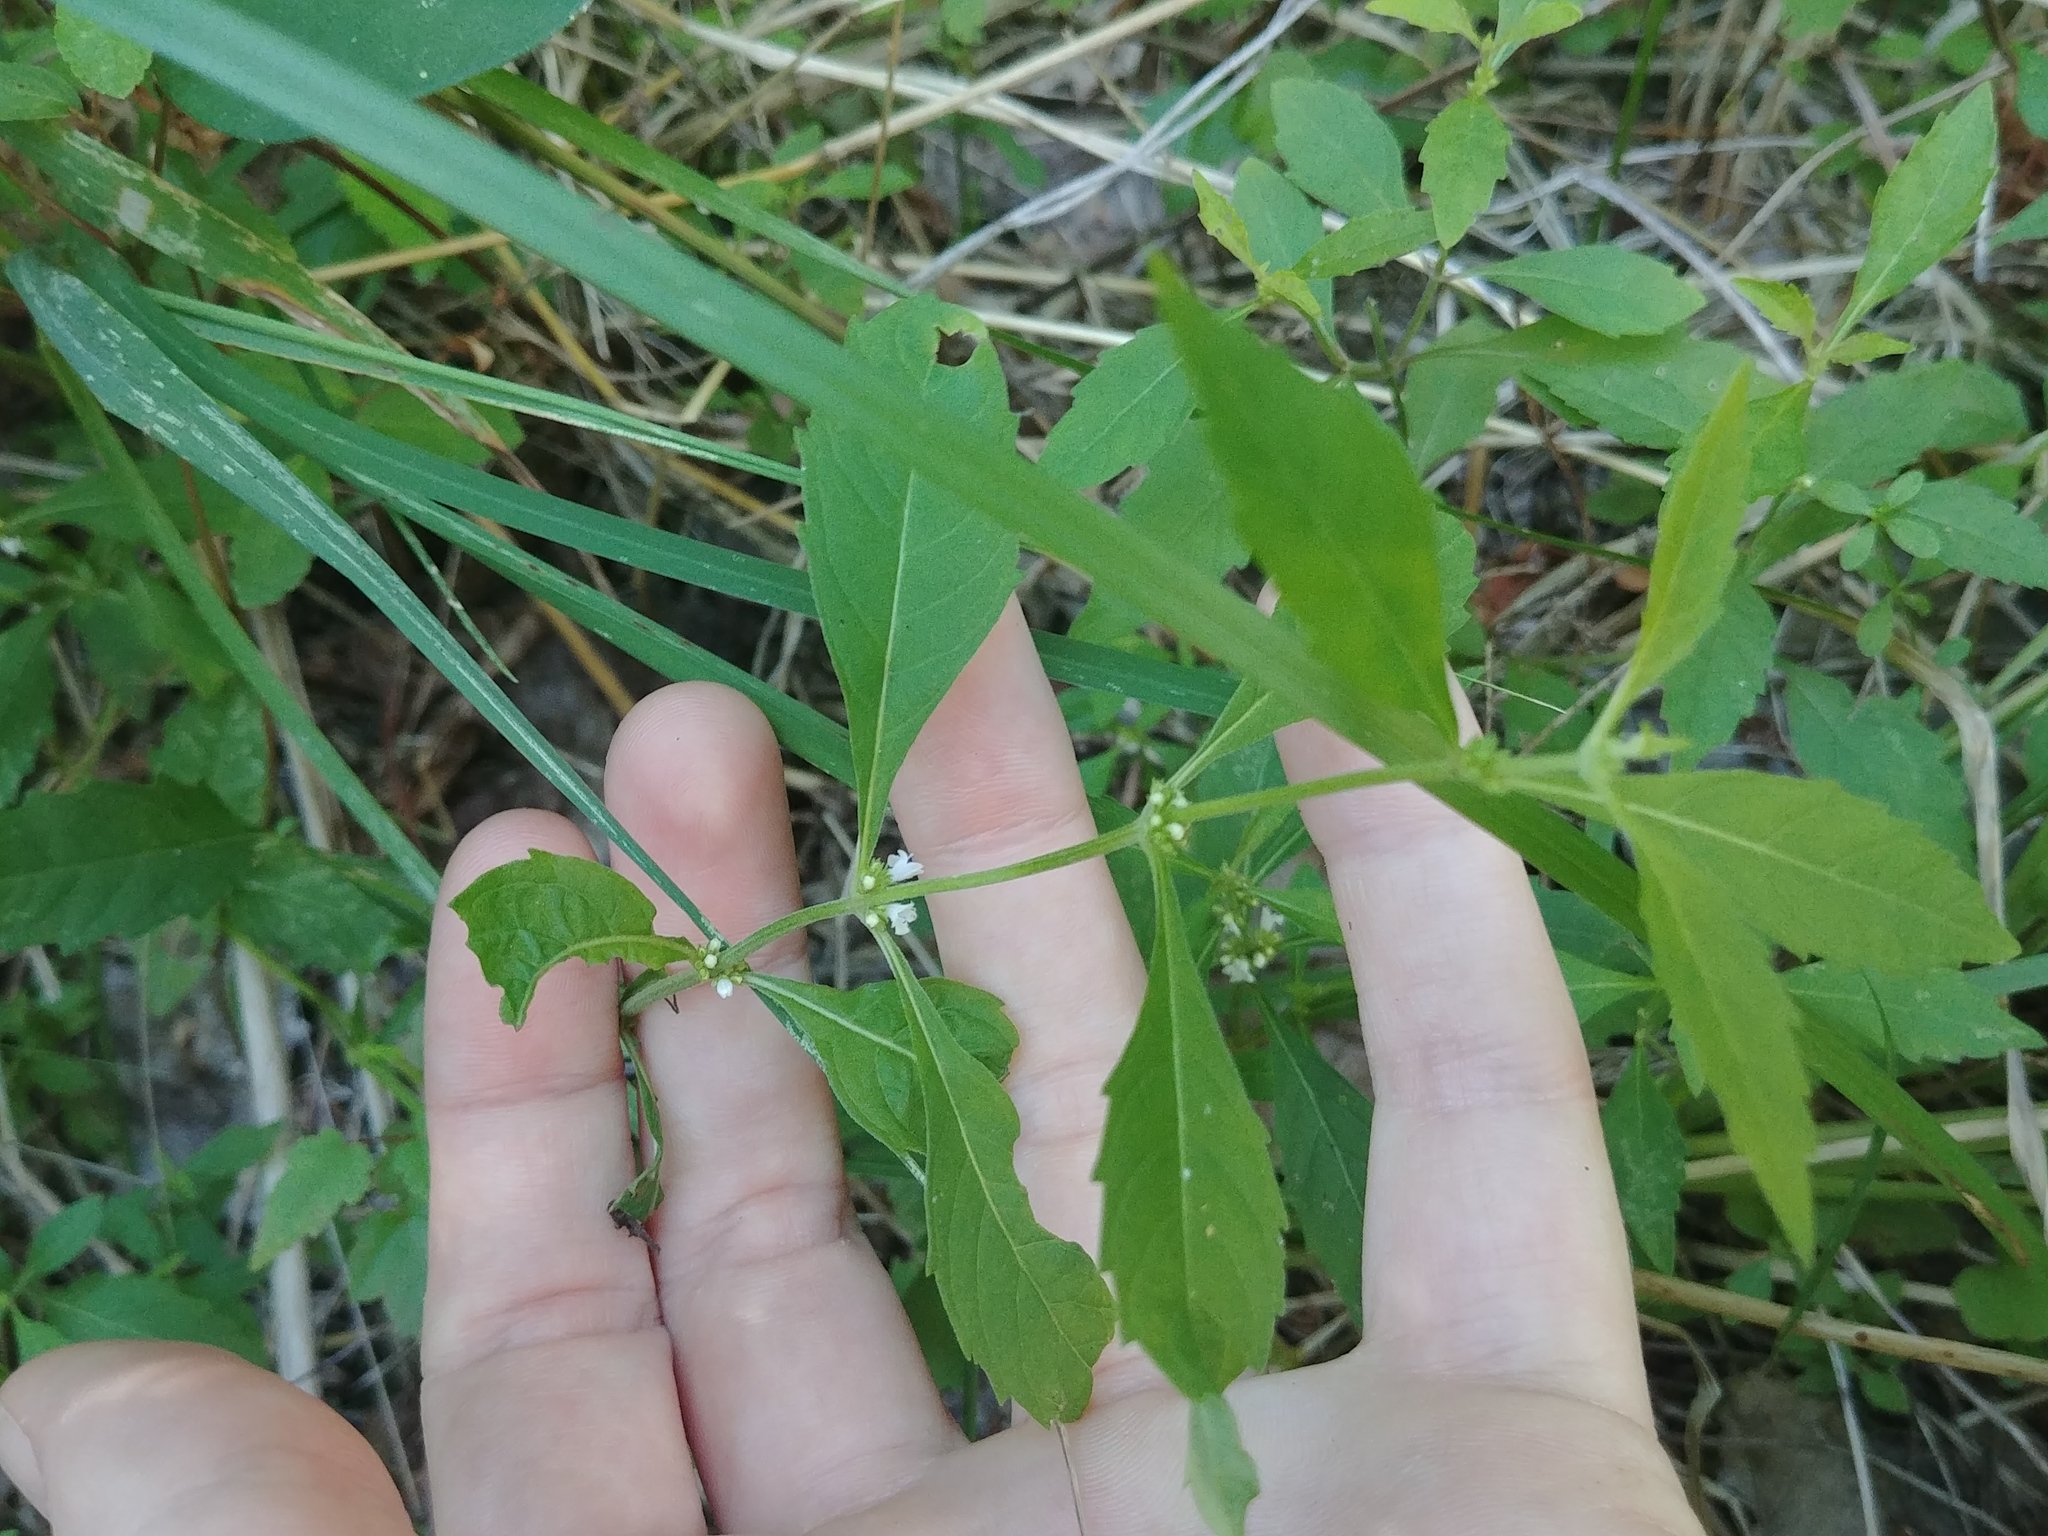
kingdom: Plantae
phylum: Tracheophyta
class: Magnoliopsida
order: Lamiales
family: Lamiaceae
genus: Lycopus
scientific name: Lycopus uniflorus
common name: Northern bugleweed
